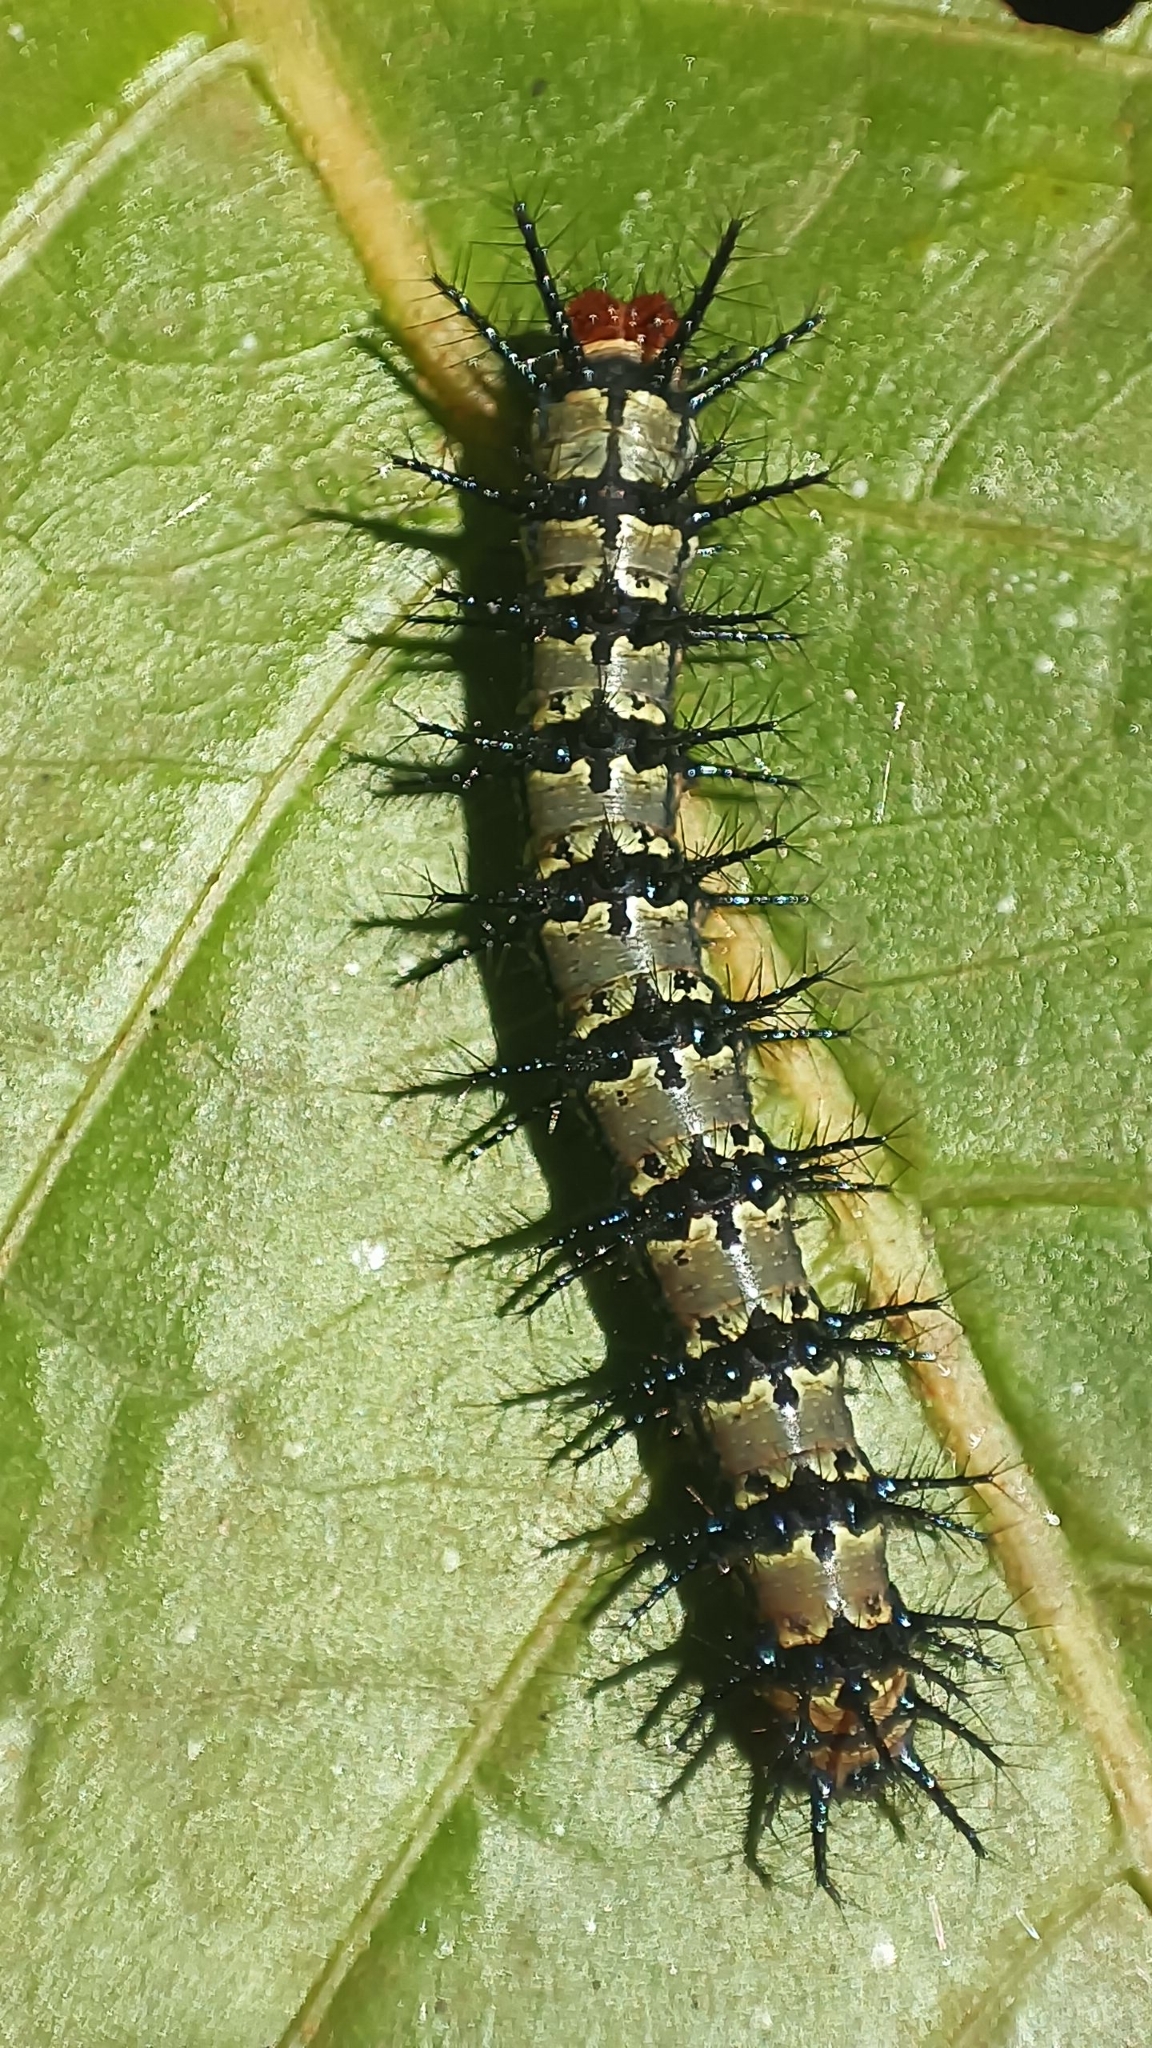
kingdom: Animalia
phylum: Arthropoda
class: Insecta
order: Lepidoptera
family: Nymphalidae
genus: Chlosyne
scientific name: Chlosyne janais
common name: Crimson patch
